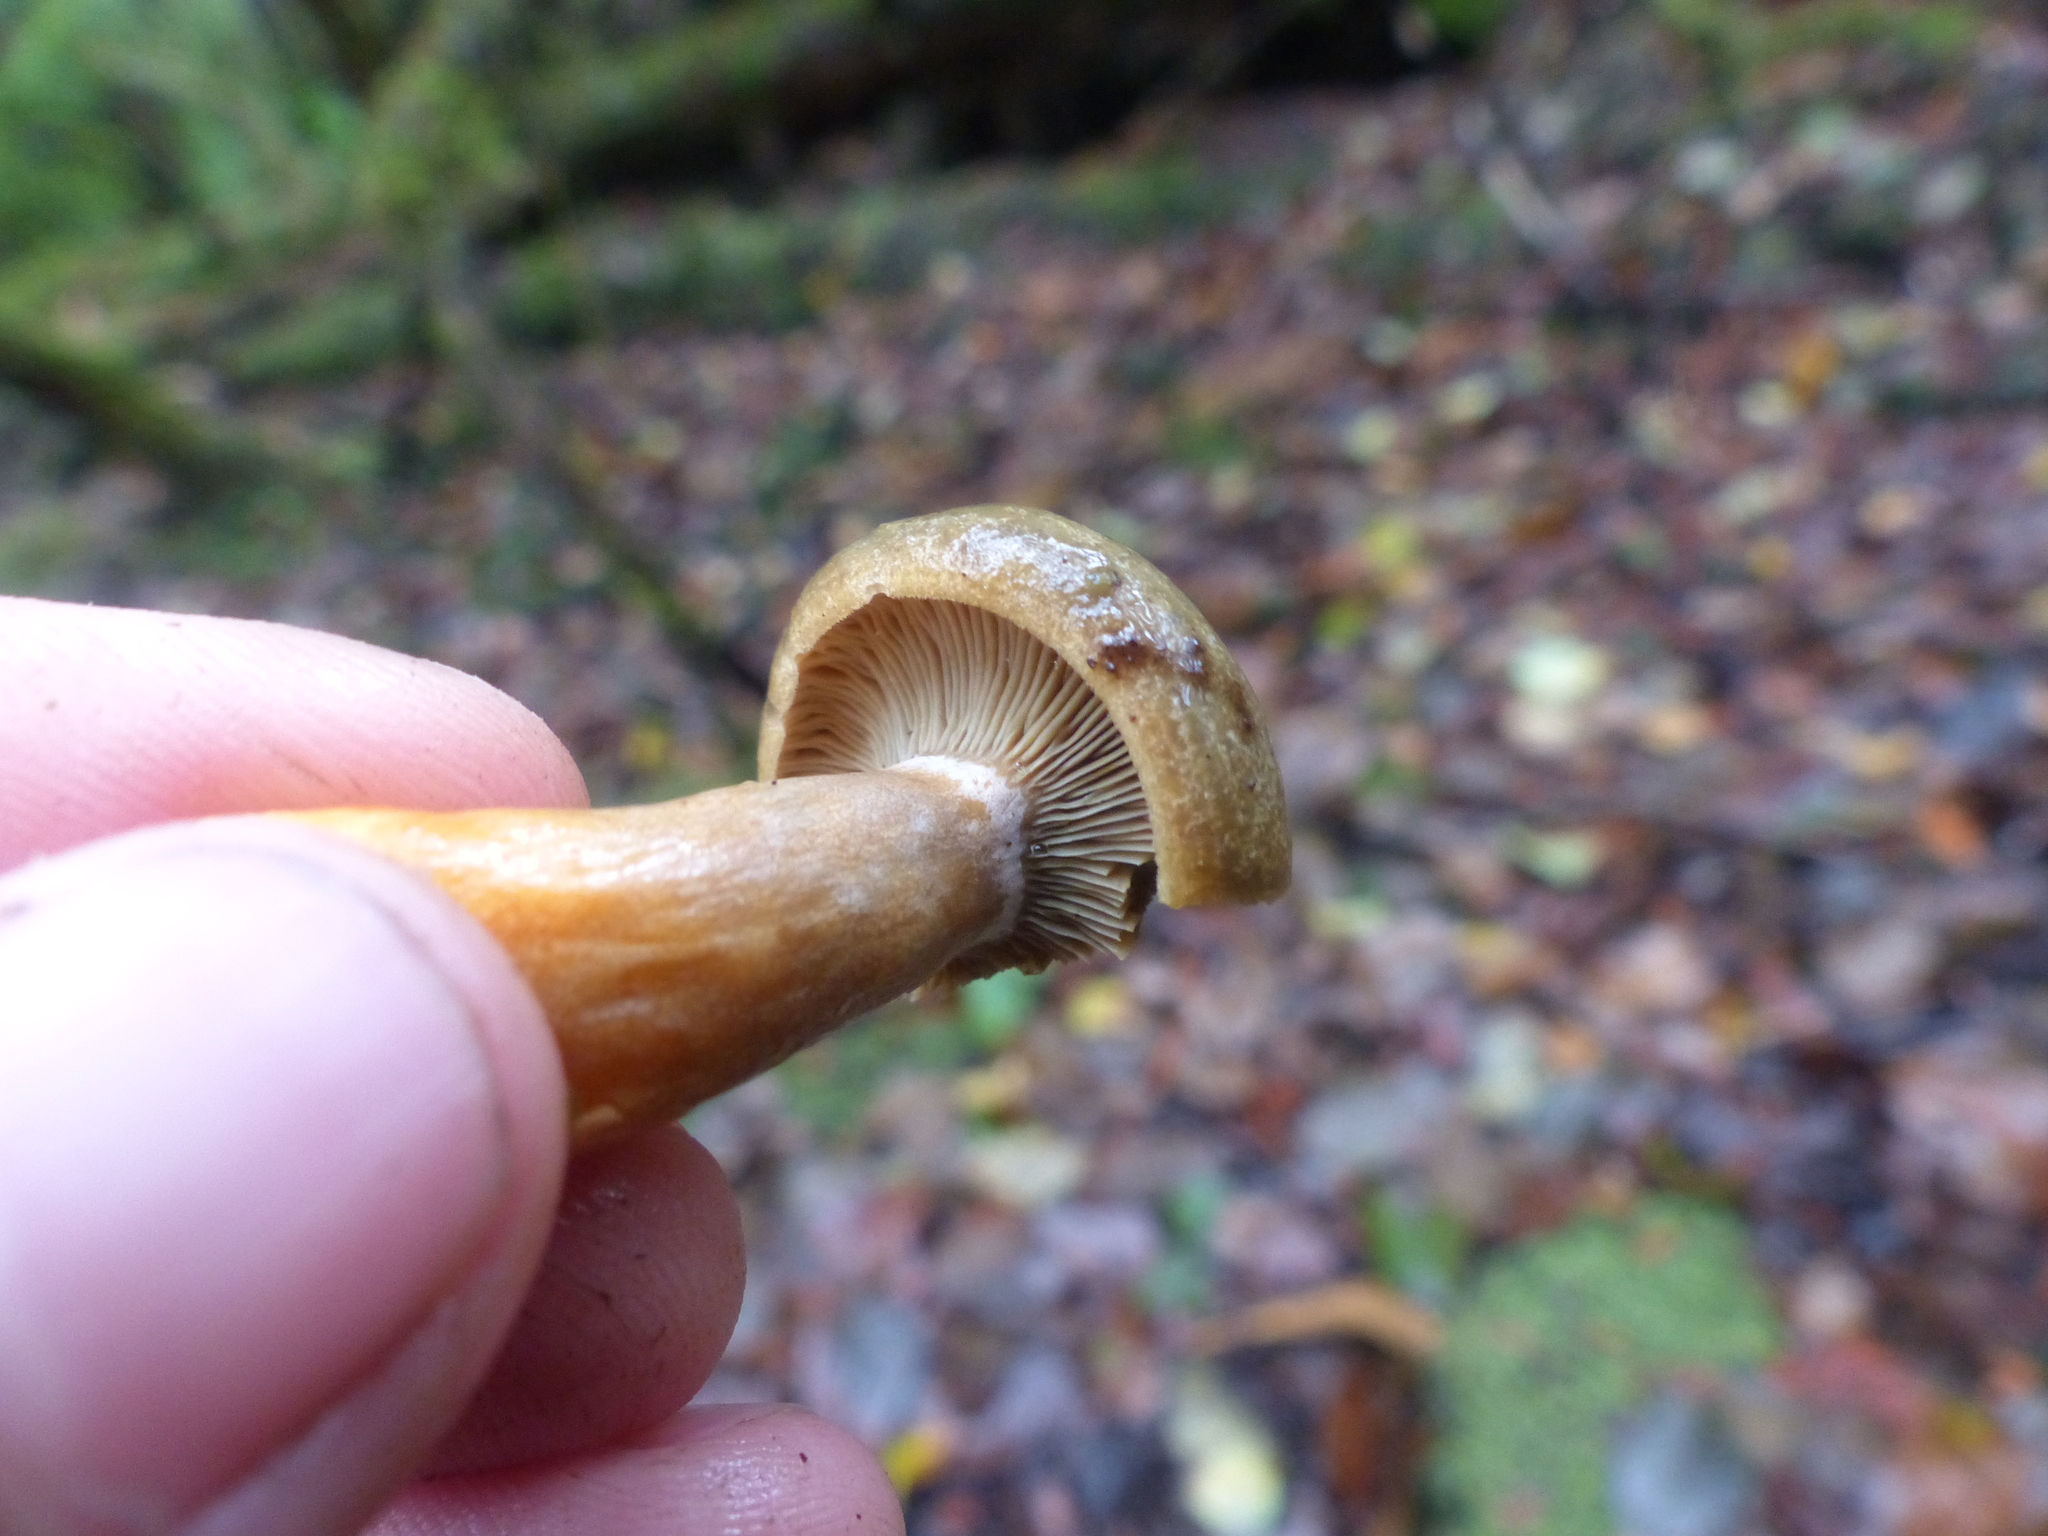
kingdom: Fungi
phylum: Basidiomycota
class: Agaricomycetes
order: Russulales
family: Russulaceae
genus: Lactarius
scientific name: Lactarius rubrilacteus
